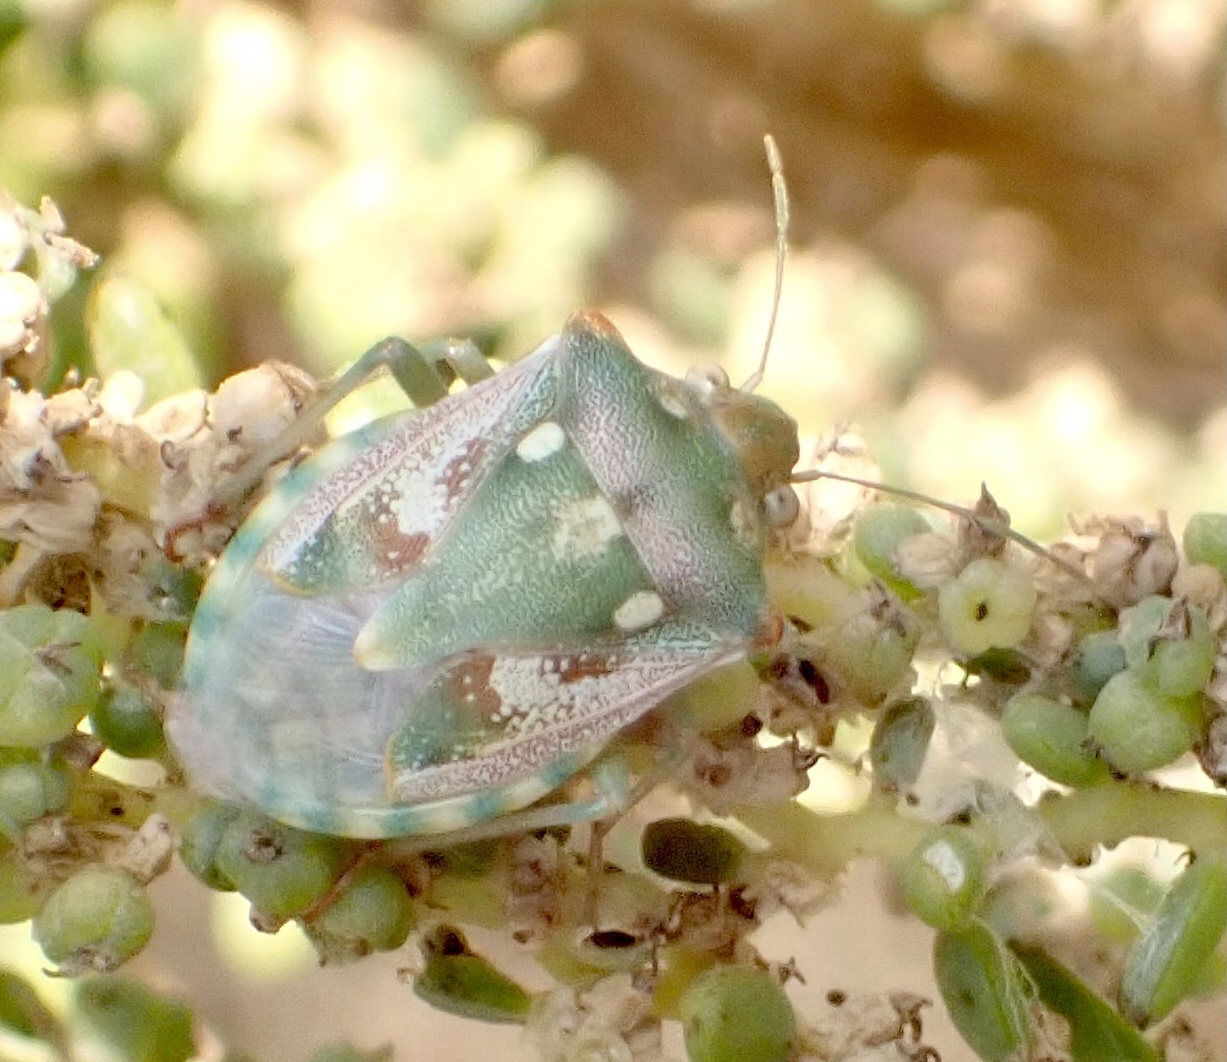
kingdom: Animalia
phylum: Arthropoda
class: Insecta
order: Hemiptera
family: Pentatomidae
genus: Croantha
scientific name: Croantha ornatula
